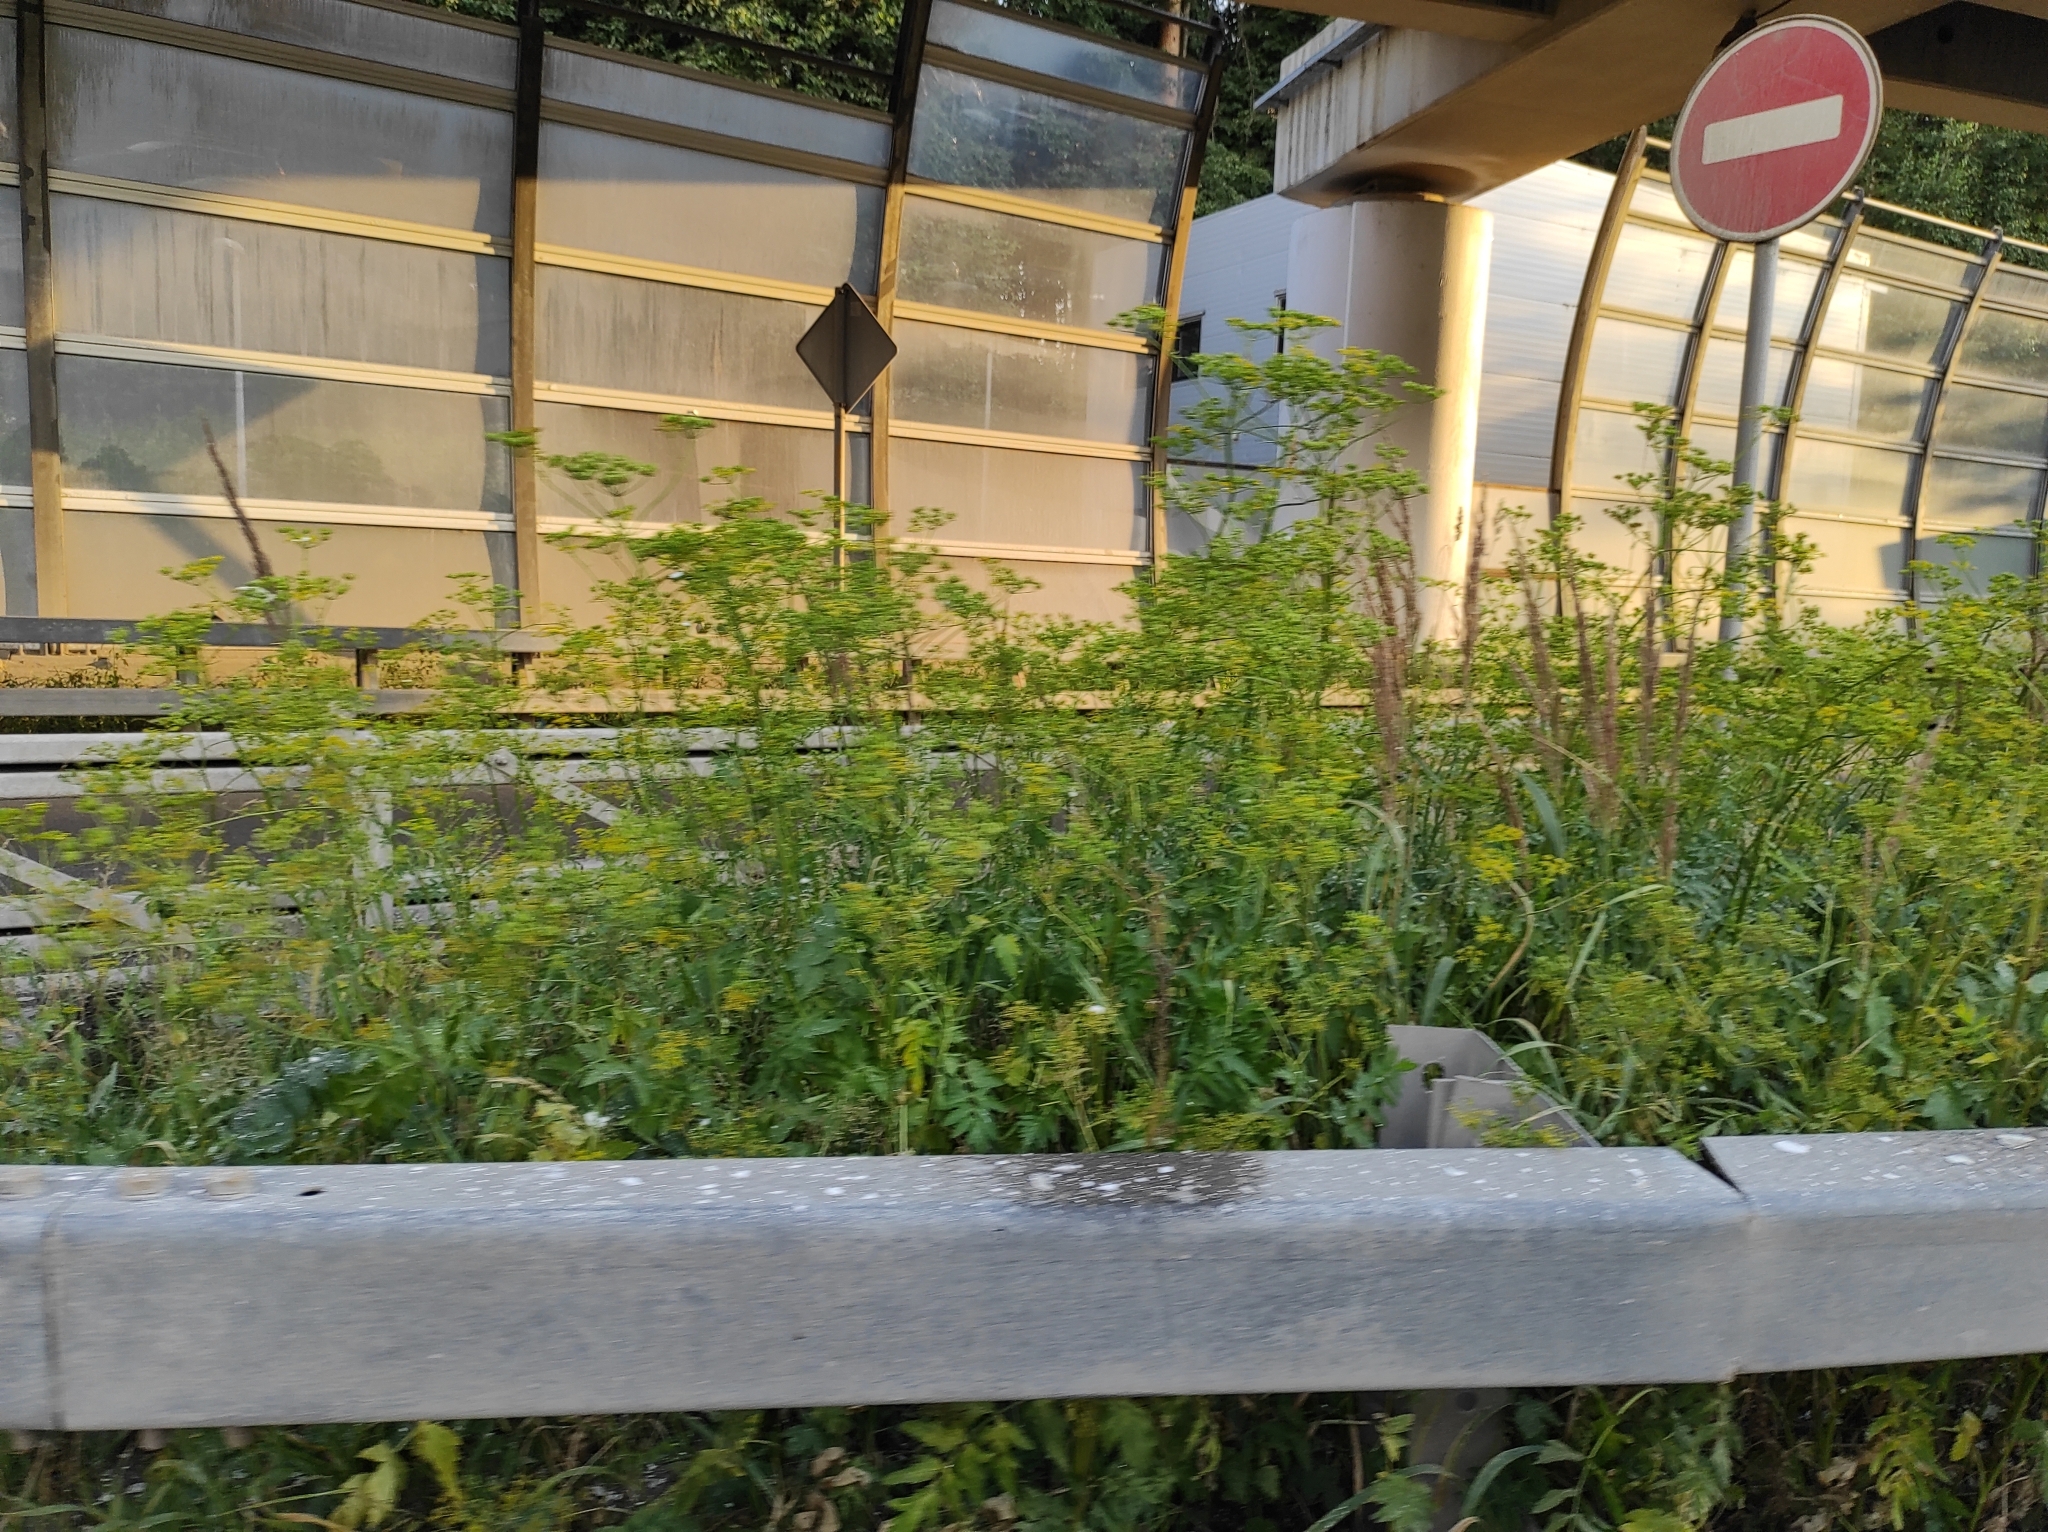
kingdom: Plantae
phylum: Tracheophyta
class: Magnoliopsida
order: Apiales
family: Apiaceae
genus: Pastinaca
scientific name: Pastinaca sativa
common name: Wild parsnip
